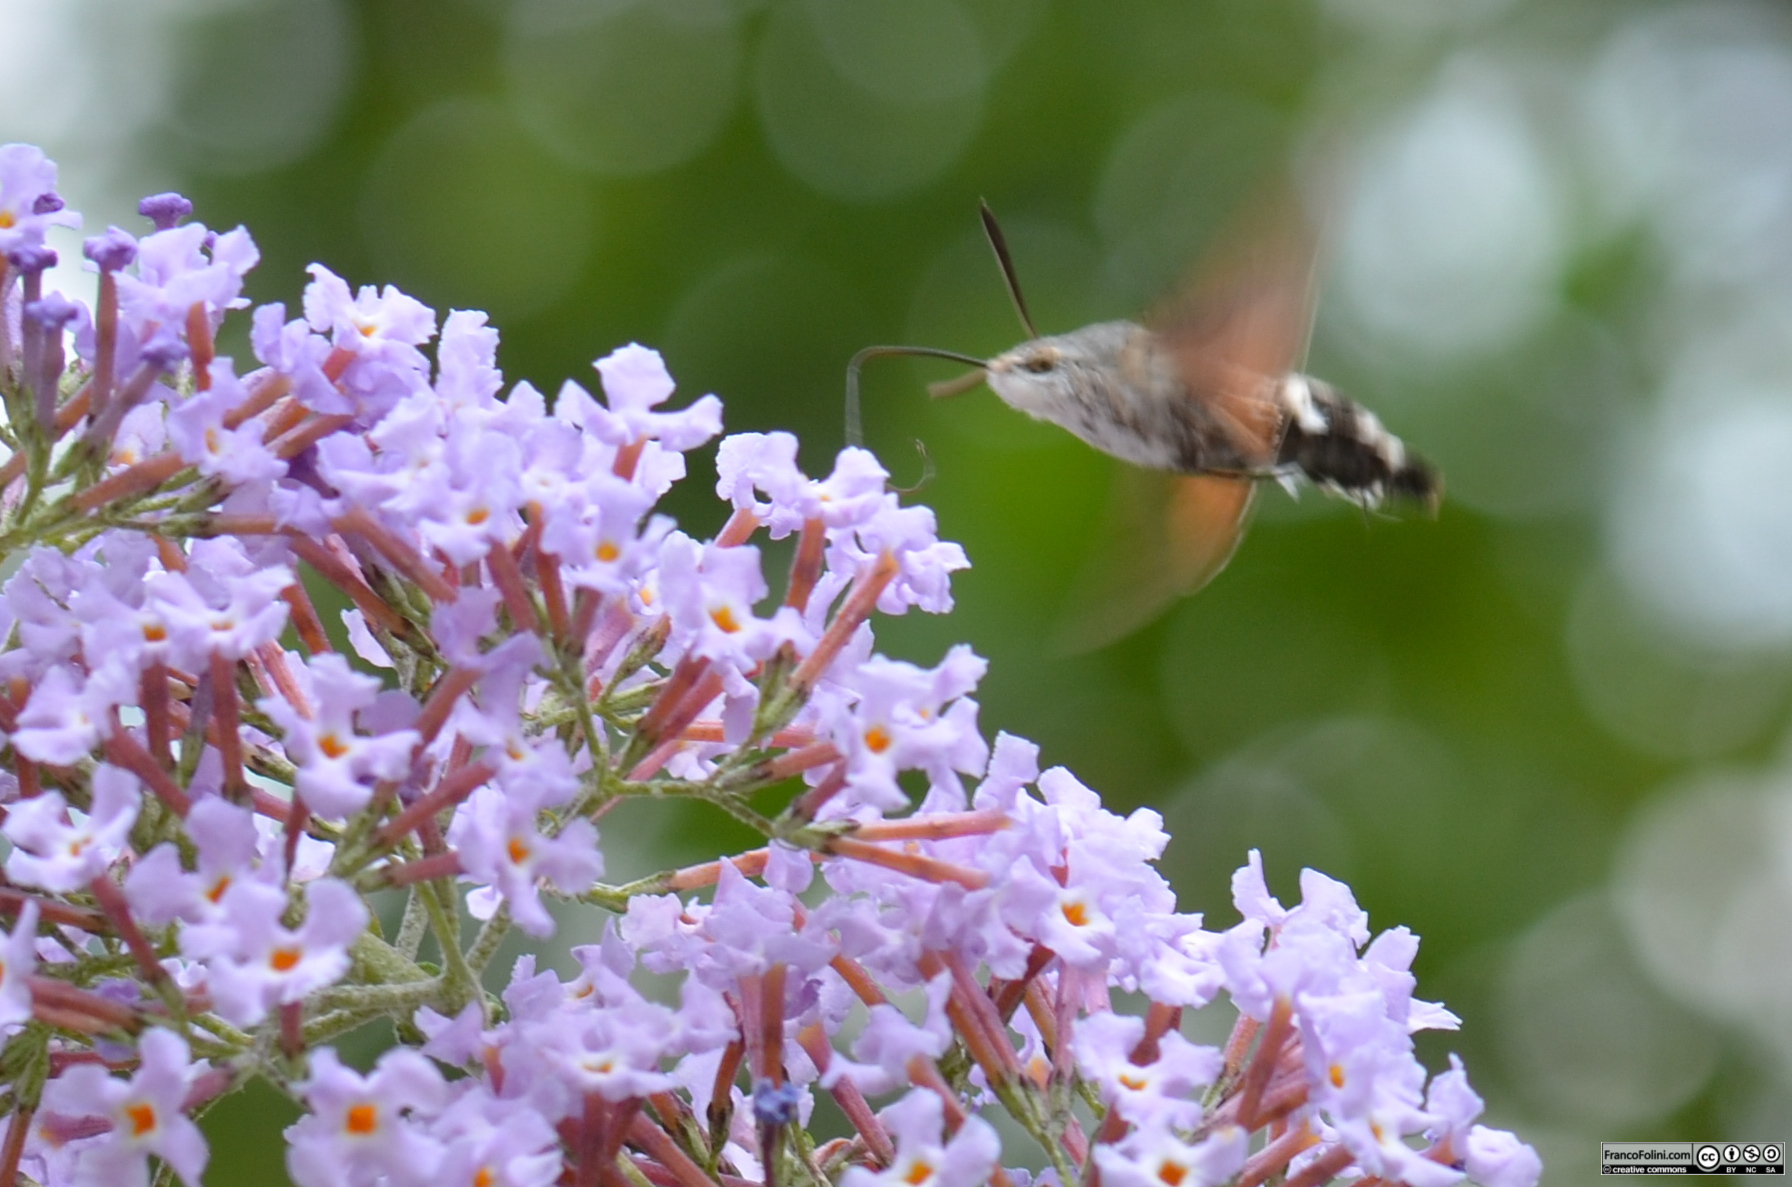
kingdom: Animalia
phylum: Arthropoda
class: Insecta
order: Lepidoptera
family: Sphingidae
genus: Macroglossum
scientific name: Macroglossum stellatarum
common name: Humming-bird hawk-moth
